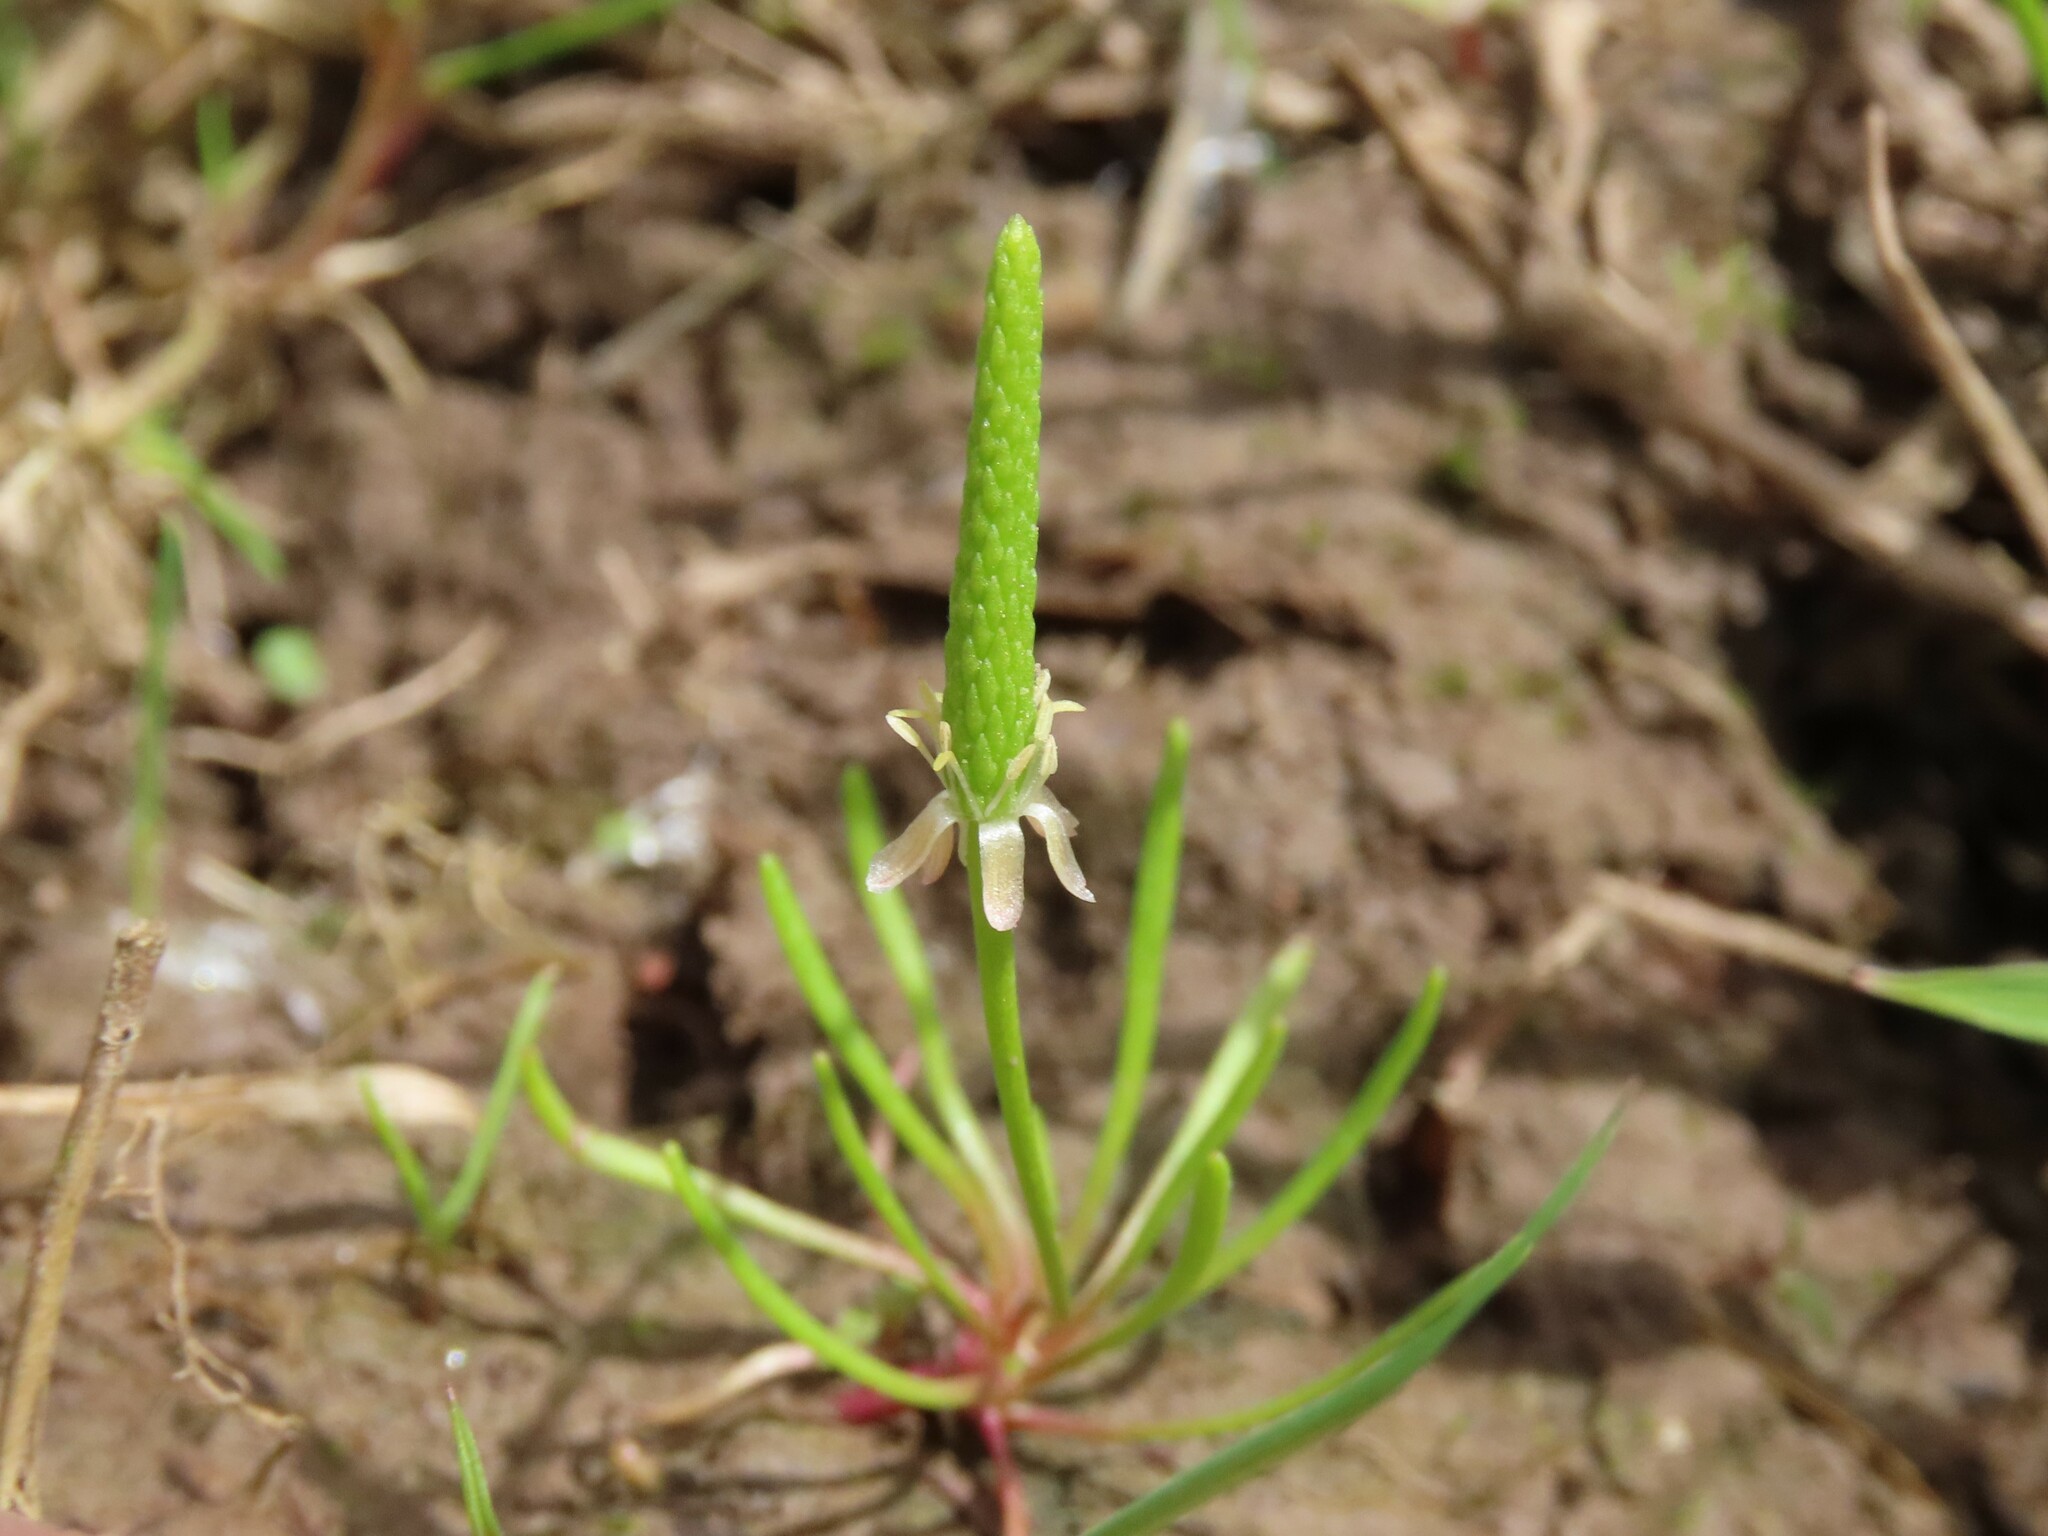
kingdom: Plantae
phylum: Tracheophyta
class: Magnoliopsida
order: Ranunculales
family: Ranunculaceae
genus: Myosurus
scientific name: Myosurus minimus
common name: Mousetail
